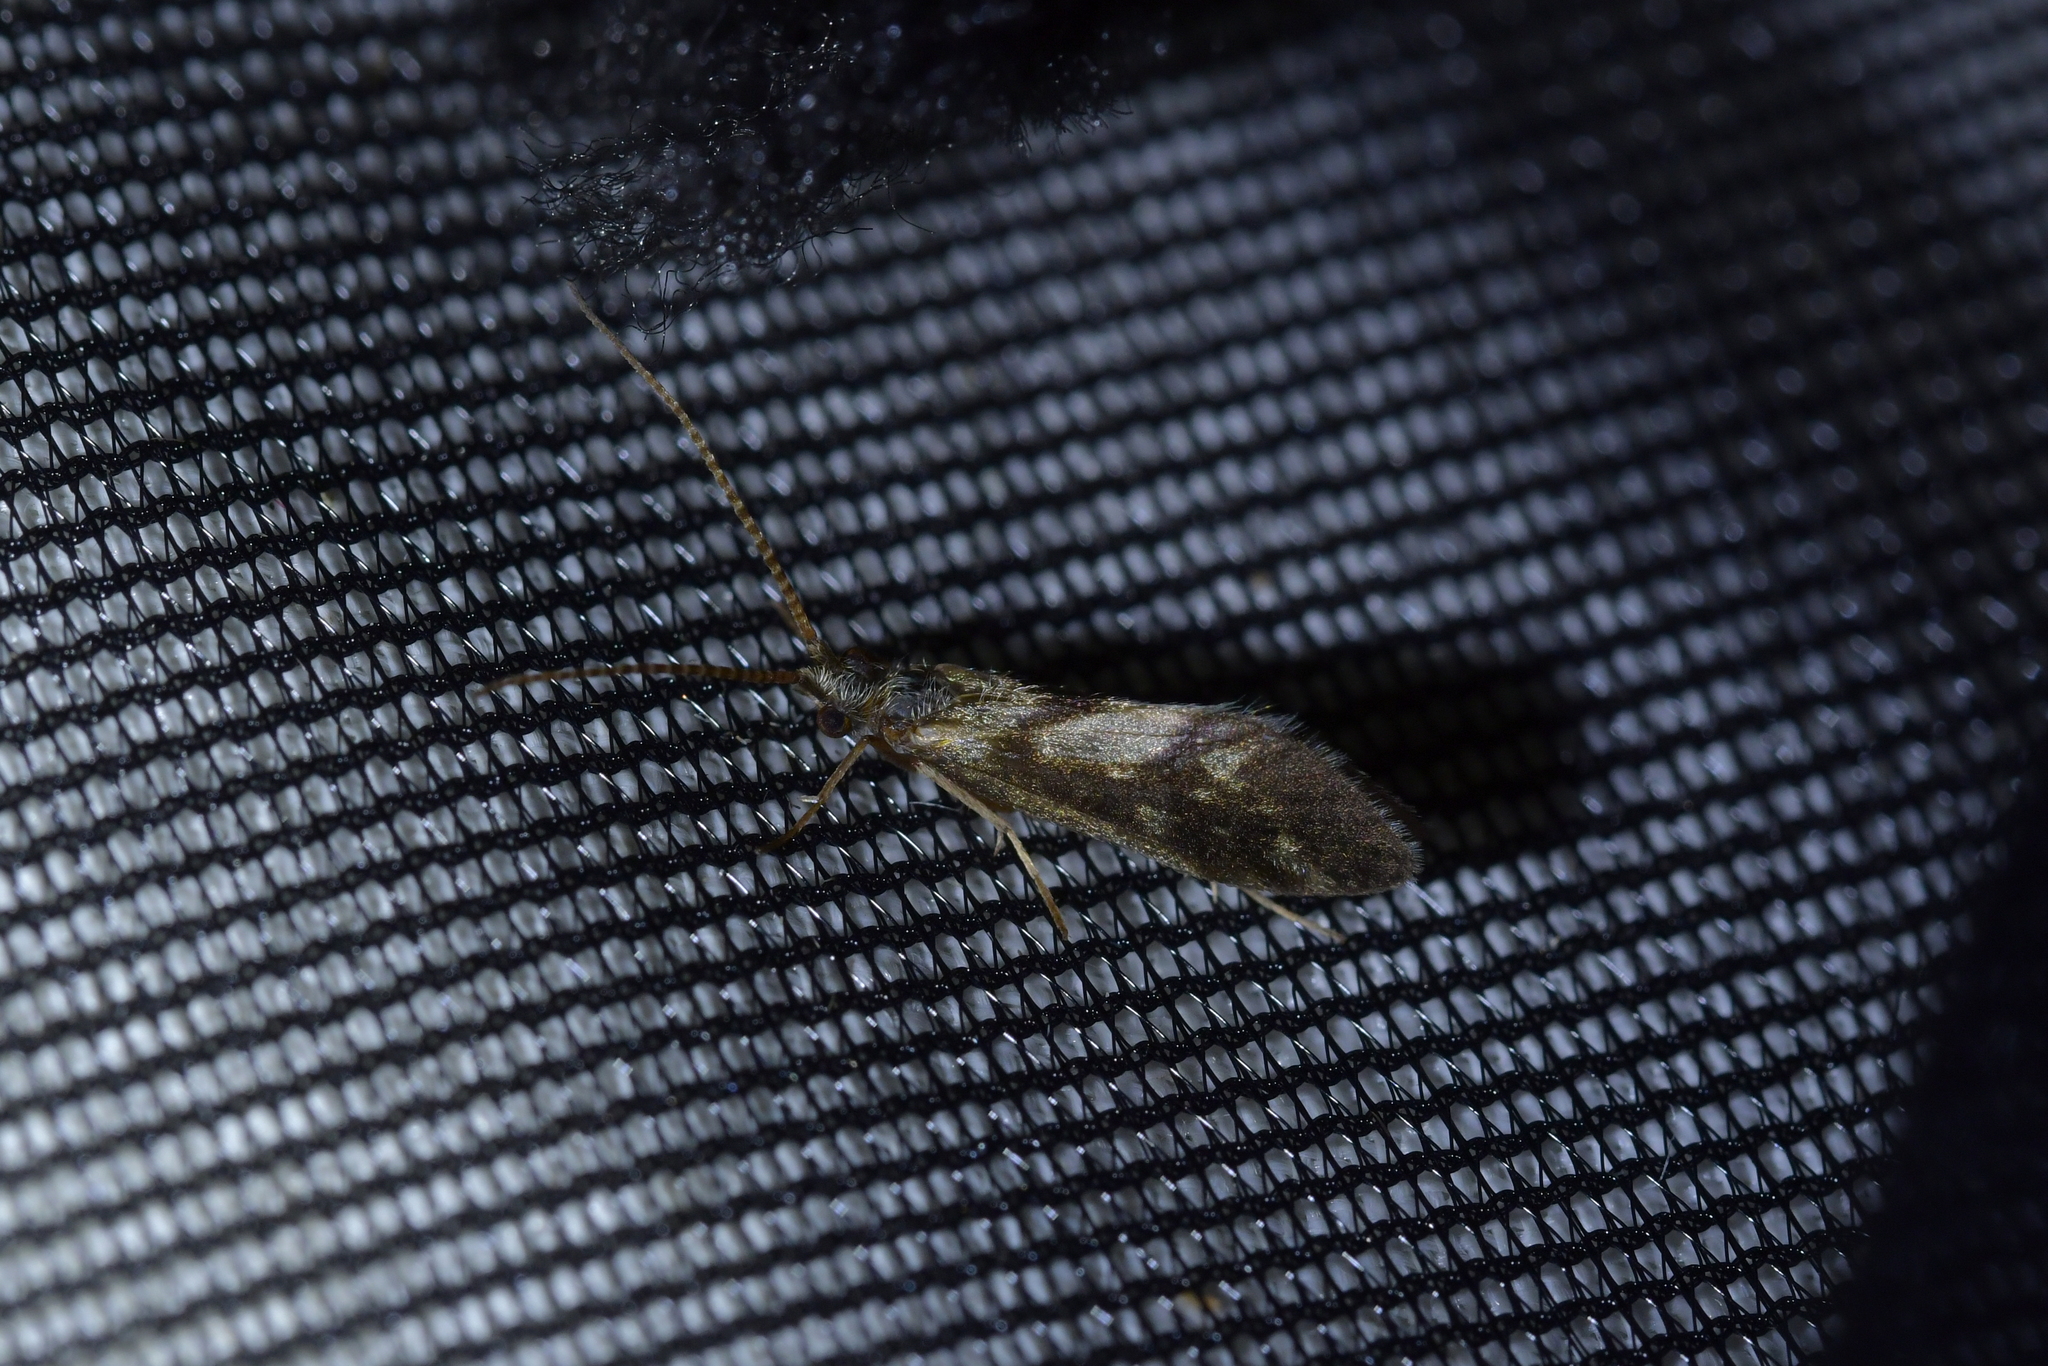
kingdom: Animalia
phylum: Arthropoda
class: Insecta
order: Trichoptera
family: Conoesucidae
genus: Pycnocentrodes
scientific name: Pycnocentrodes aureolus
